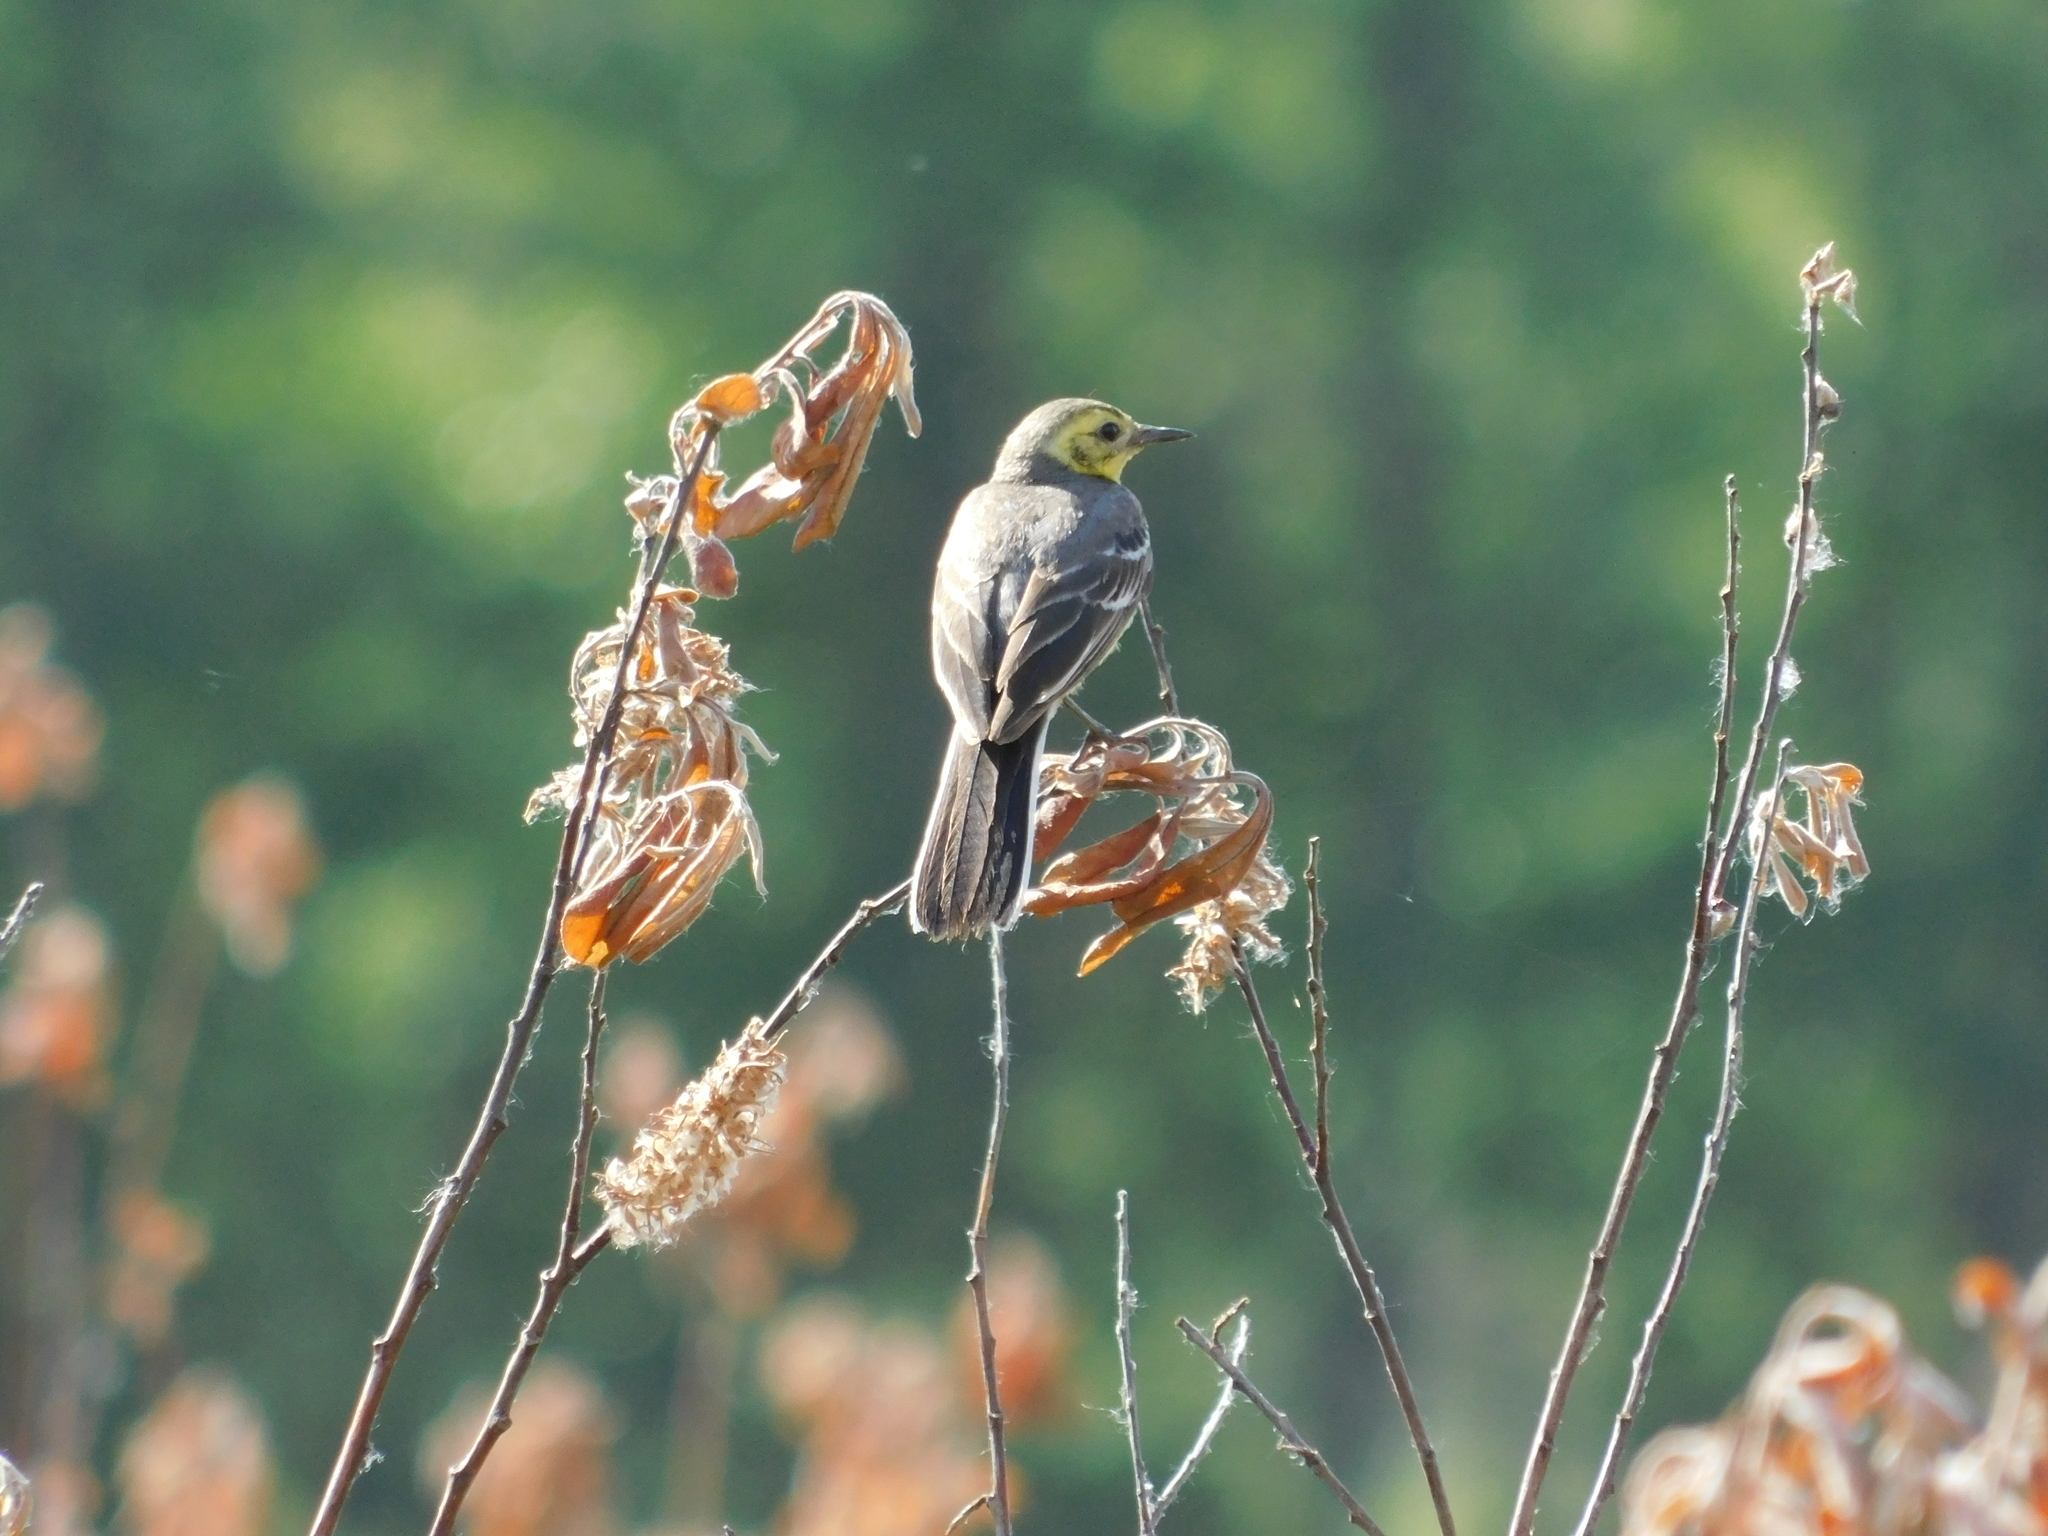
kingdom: Animalia
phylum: Chordata
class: Aves
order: Passeriformes
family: Motacillidae
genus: Motacilla
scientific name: Motacilla citreola
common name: Citrine wagtail
